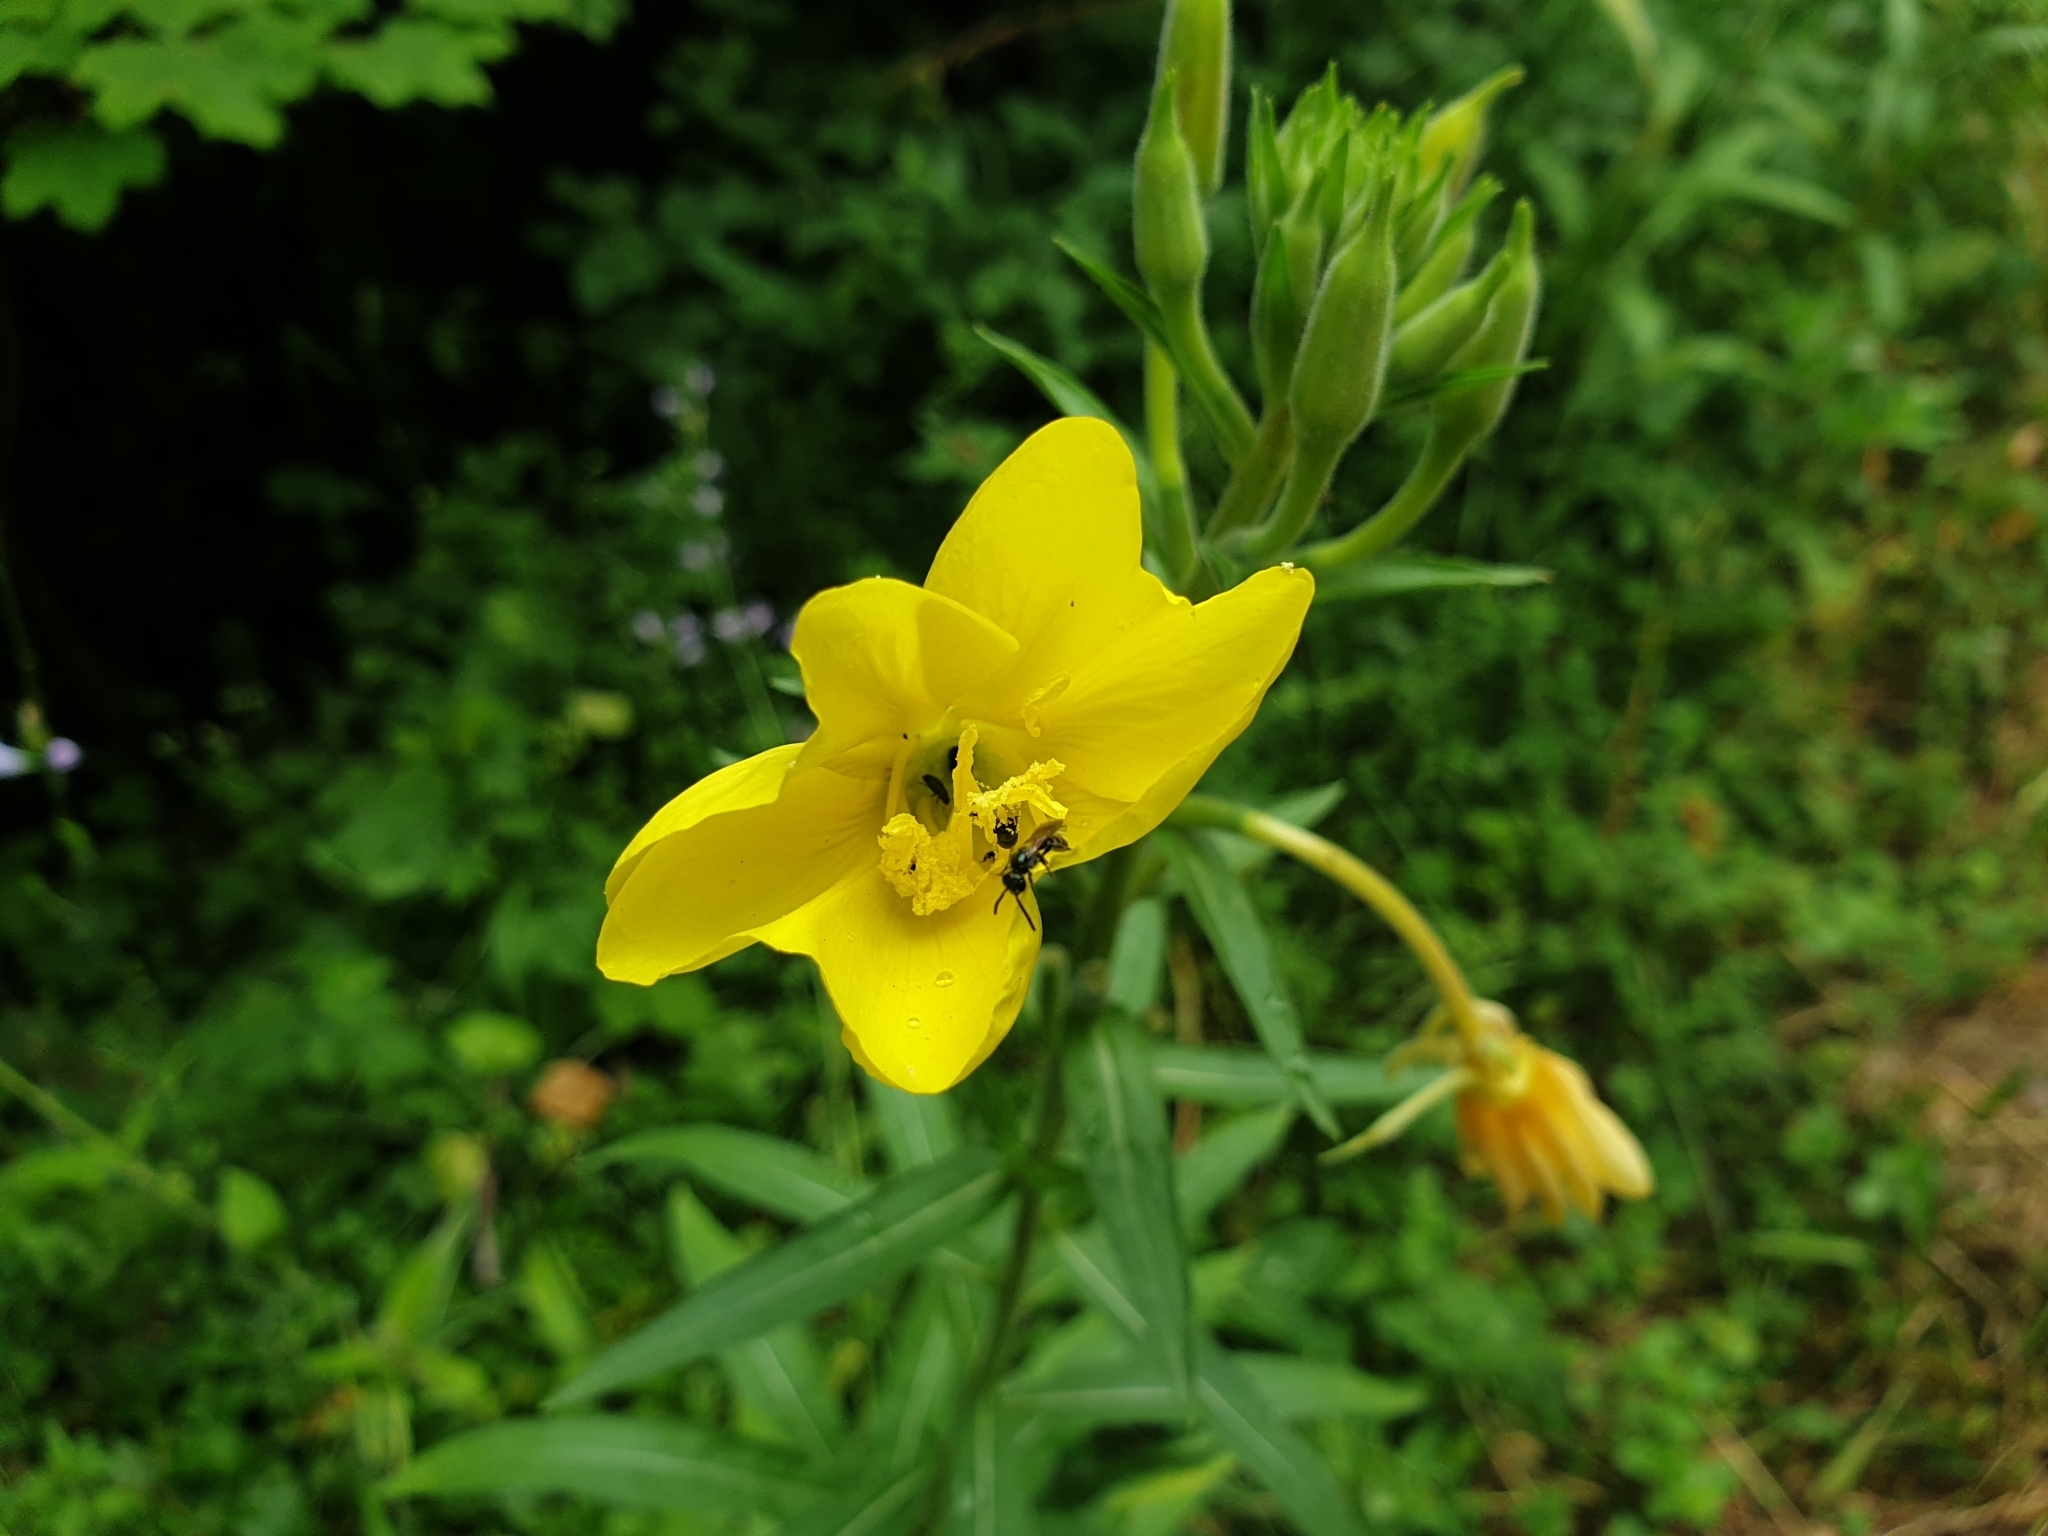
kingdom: Plantae
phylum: Tracheophyta
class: Magnoliopsida
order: Myrtales
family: Onagraceae
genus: Oenothera
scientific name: Oenothera biennis
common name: Common evening-primrose
